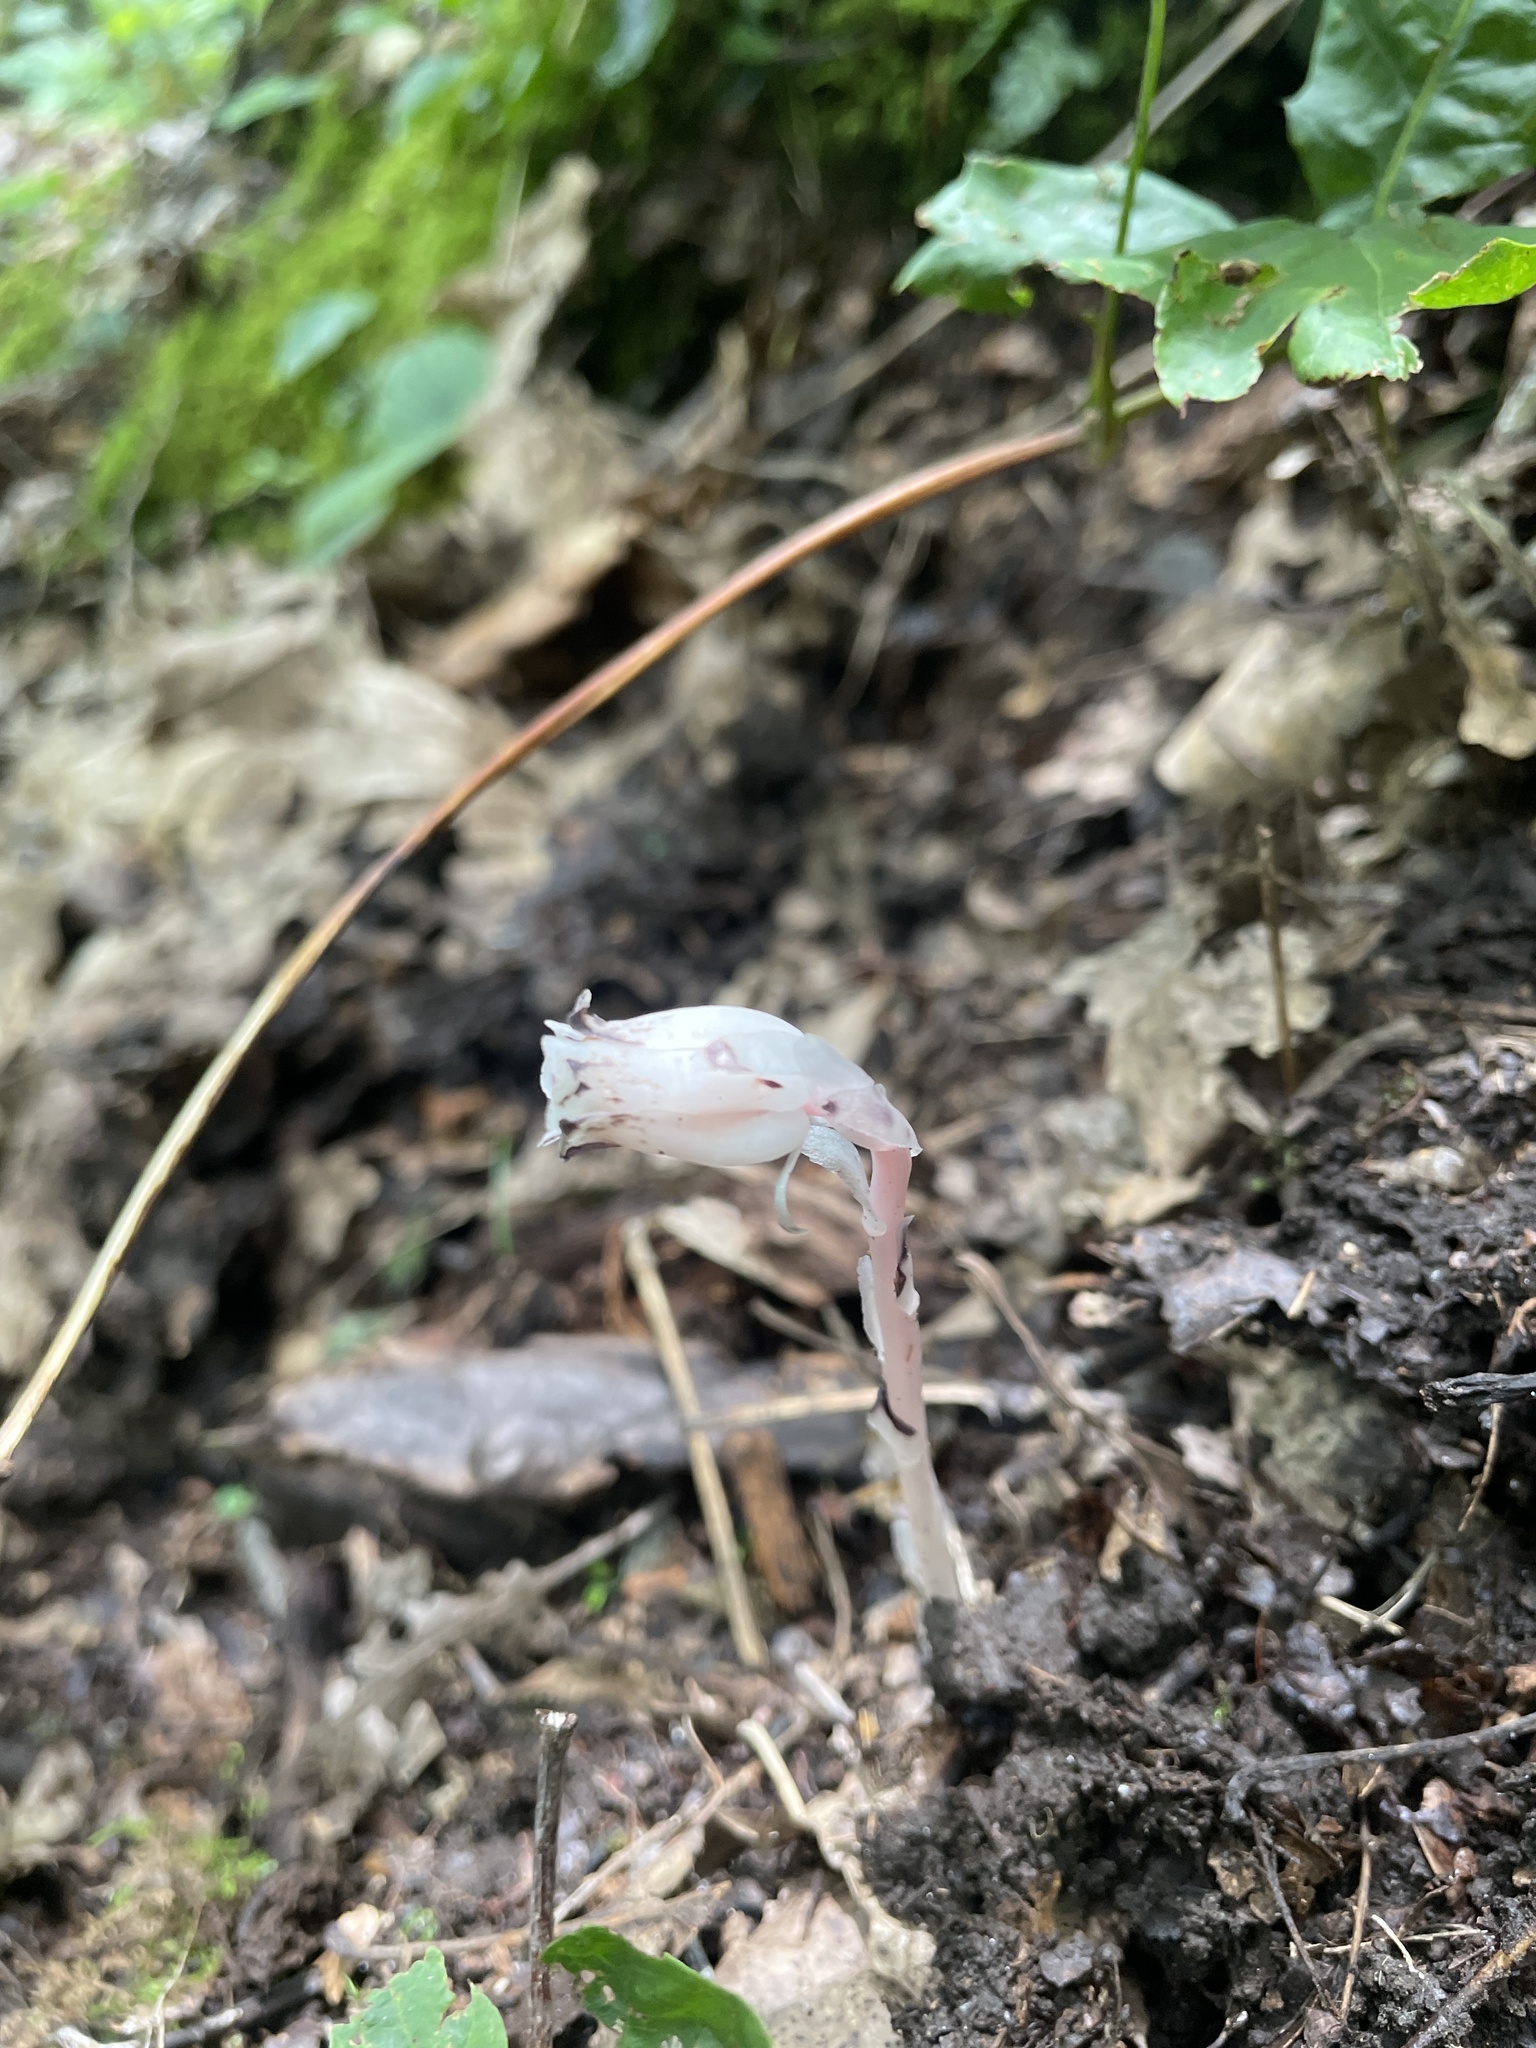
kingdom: Plantae
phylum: Tracheophyta
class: Magnoliopsida
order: Ericales
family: Ericaceae
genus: Monotropa
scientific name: Monotropa uniflora
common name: Convulsion root
